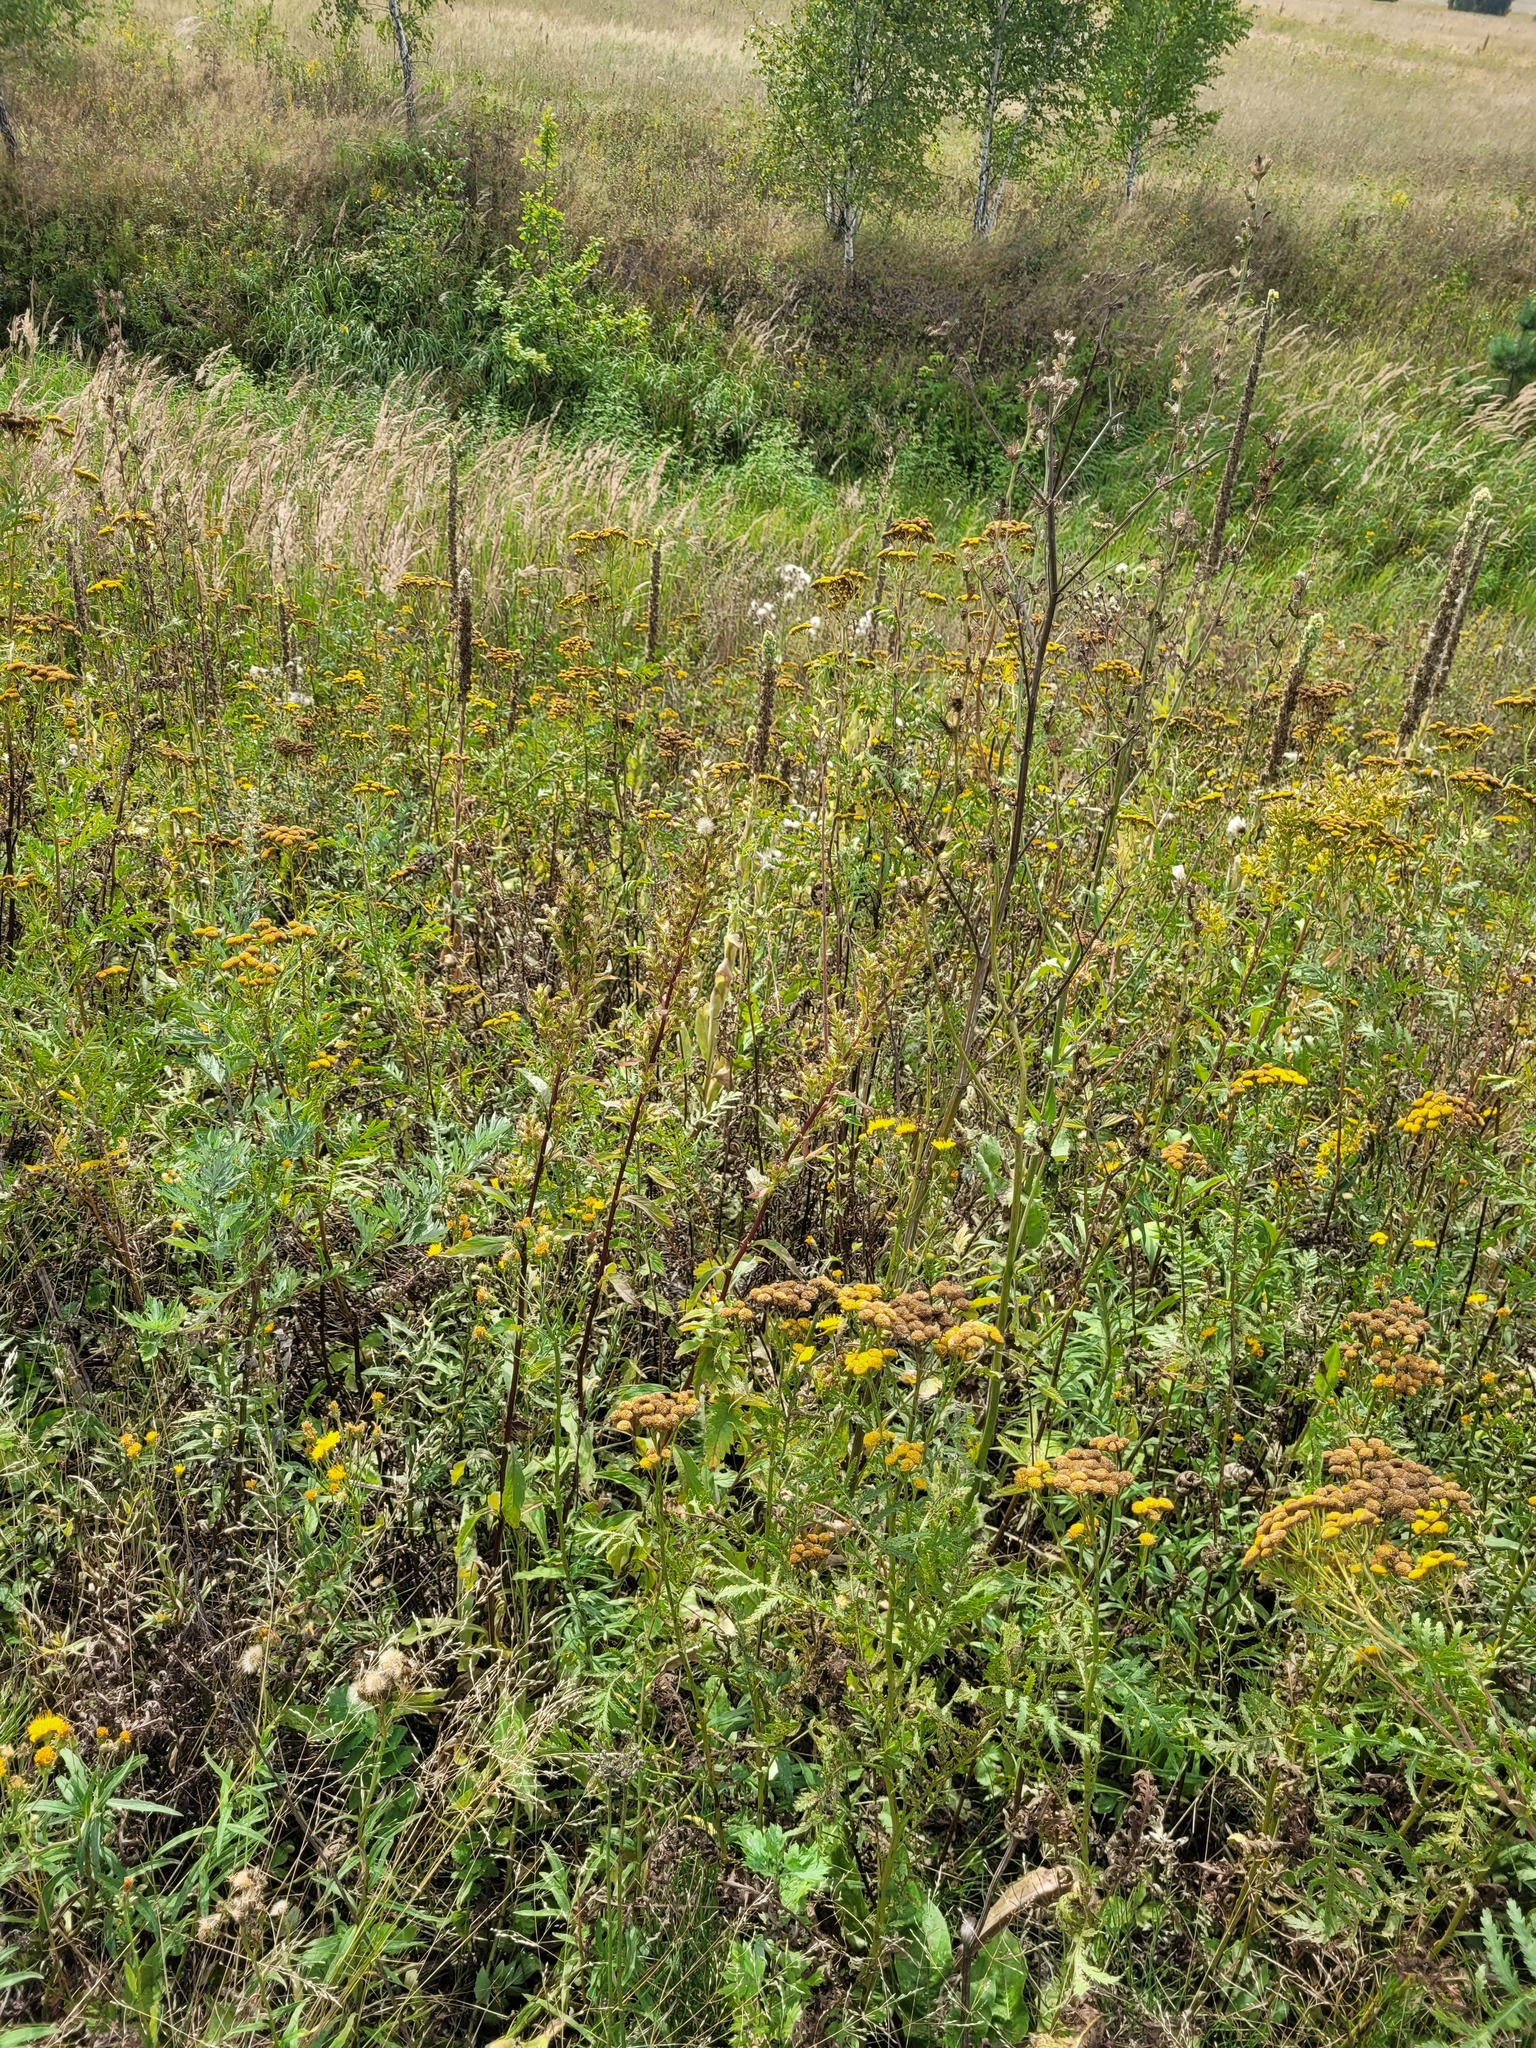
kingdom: Plantae
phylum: Tracheophyta
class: Magnoliopsida
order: Apiales
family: Apiaceae
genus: Pastinaca
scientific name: Pastinaca sativa
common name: Wild parsnip
